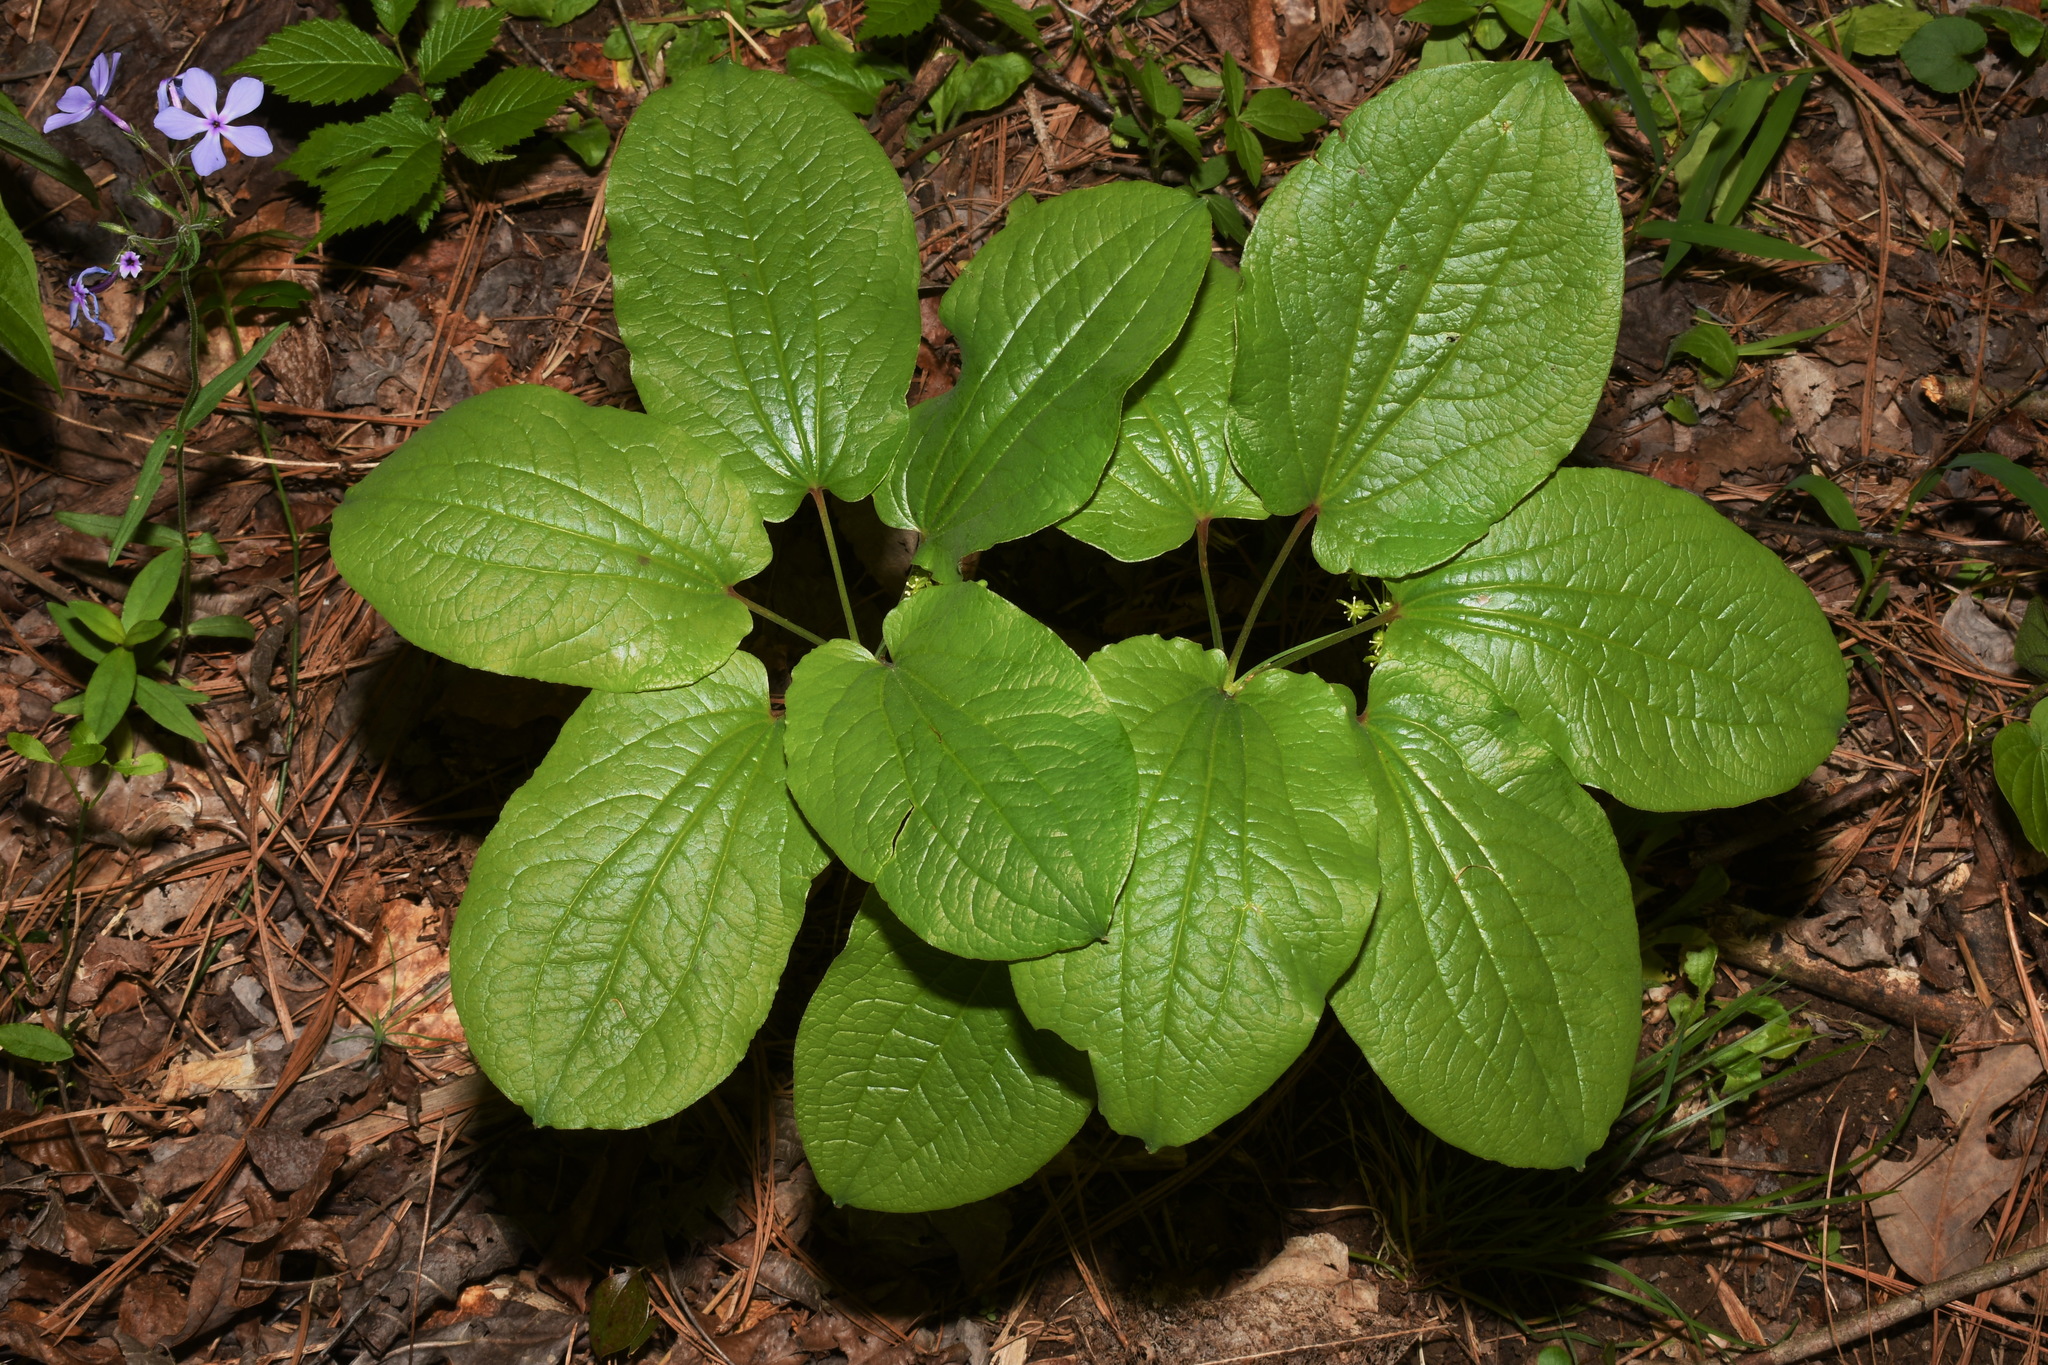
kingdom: Plantae
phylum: Tracheophyta
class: Liliopsida
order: Liliales
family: Smilacaceae
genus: Smilax
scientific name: Smilax hugeri
